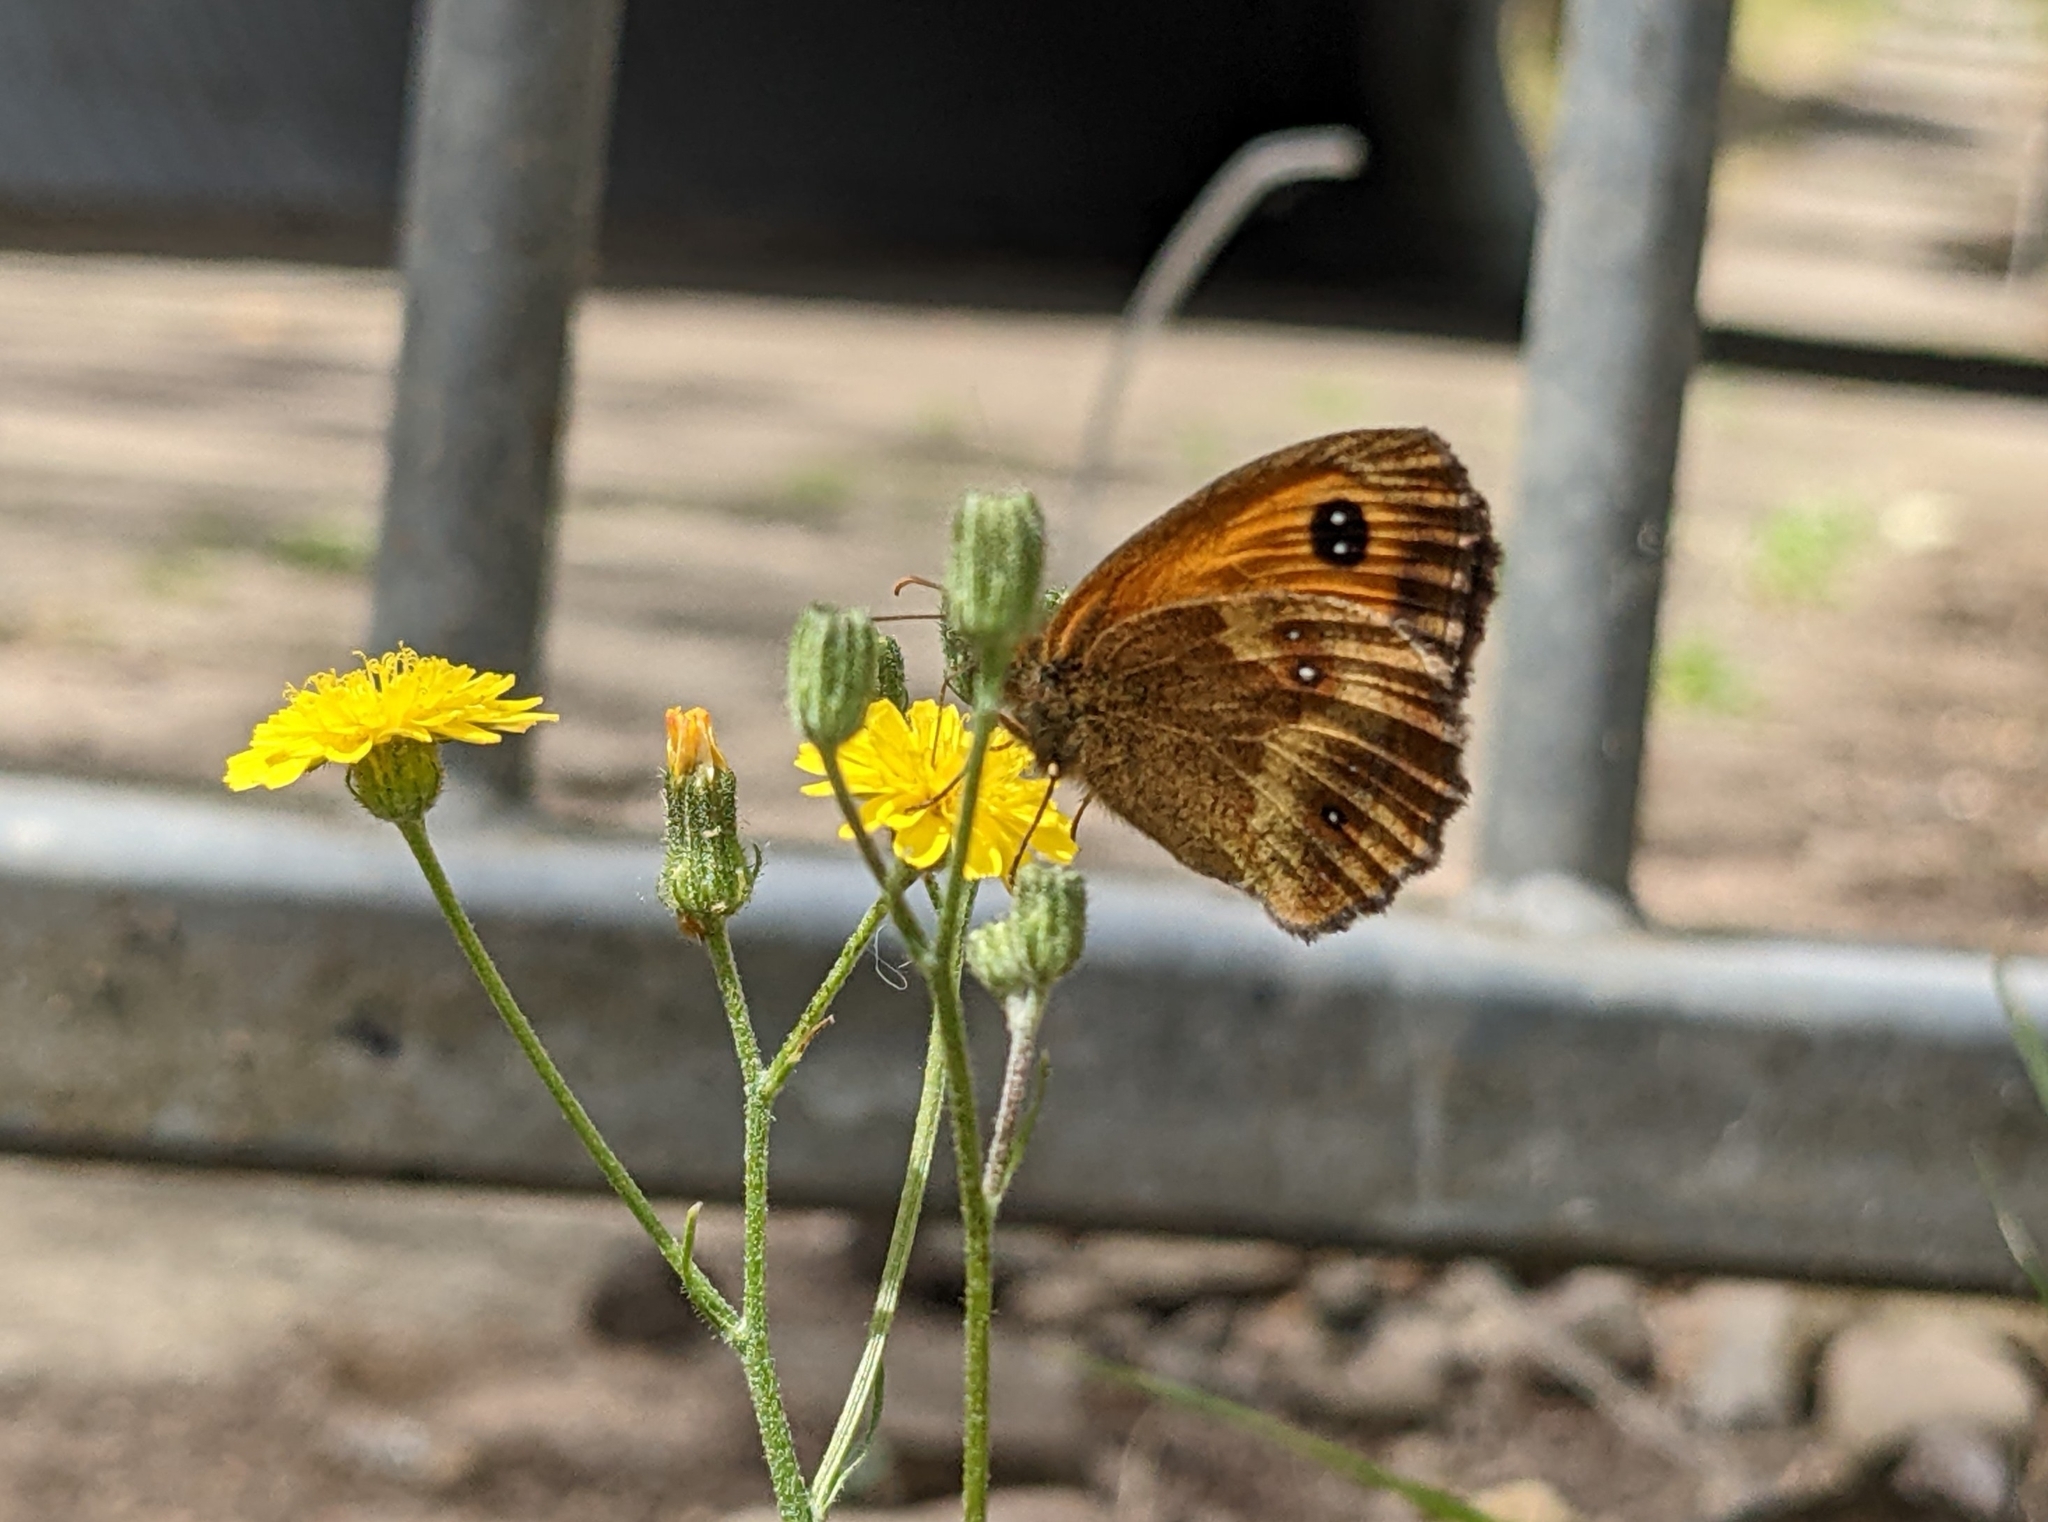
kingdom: Animalia
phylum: Arthropoda
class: Insecta
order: Lepidoptera
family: Nymphalidae
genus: Pyronia
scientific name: Pyronia tithonus
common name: Gatekeeper
